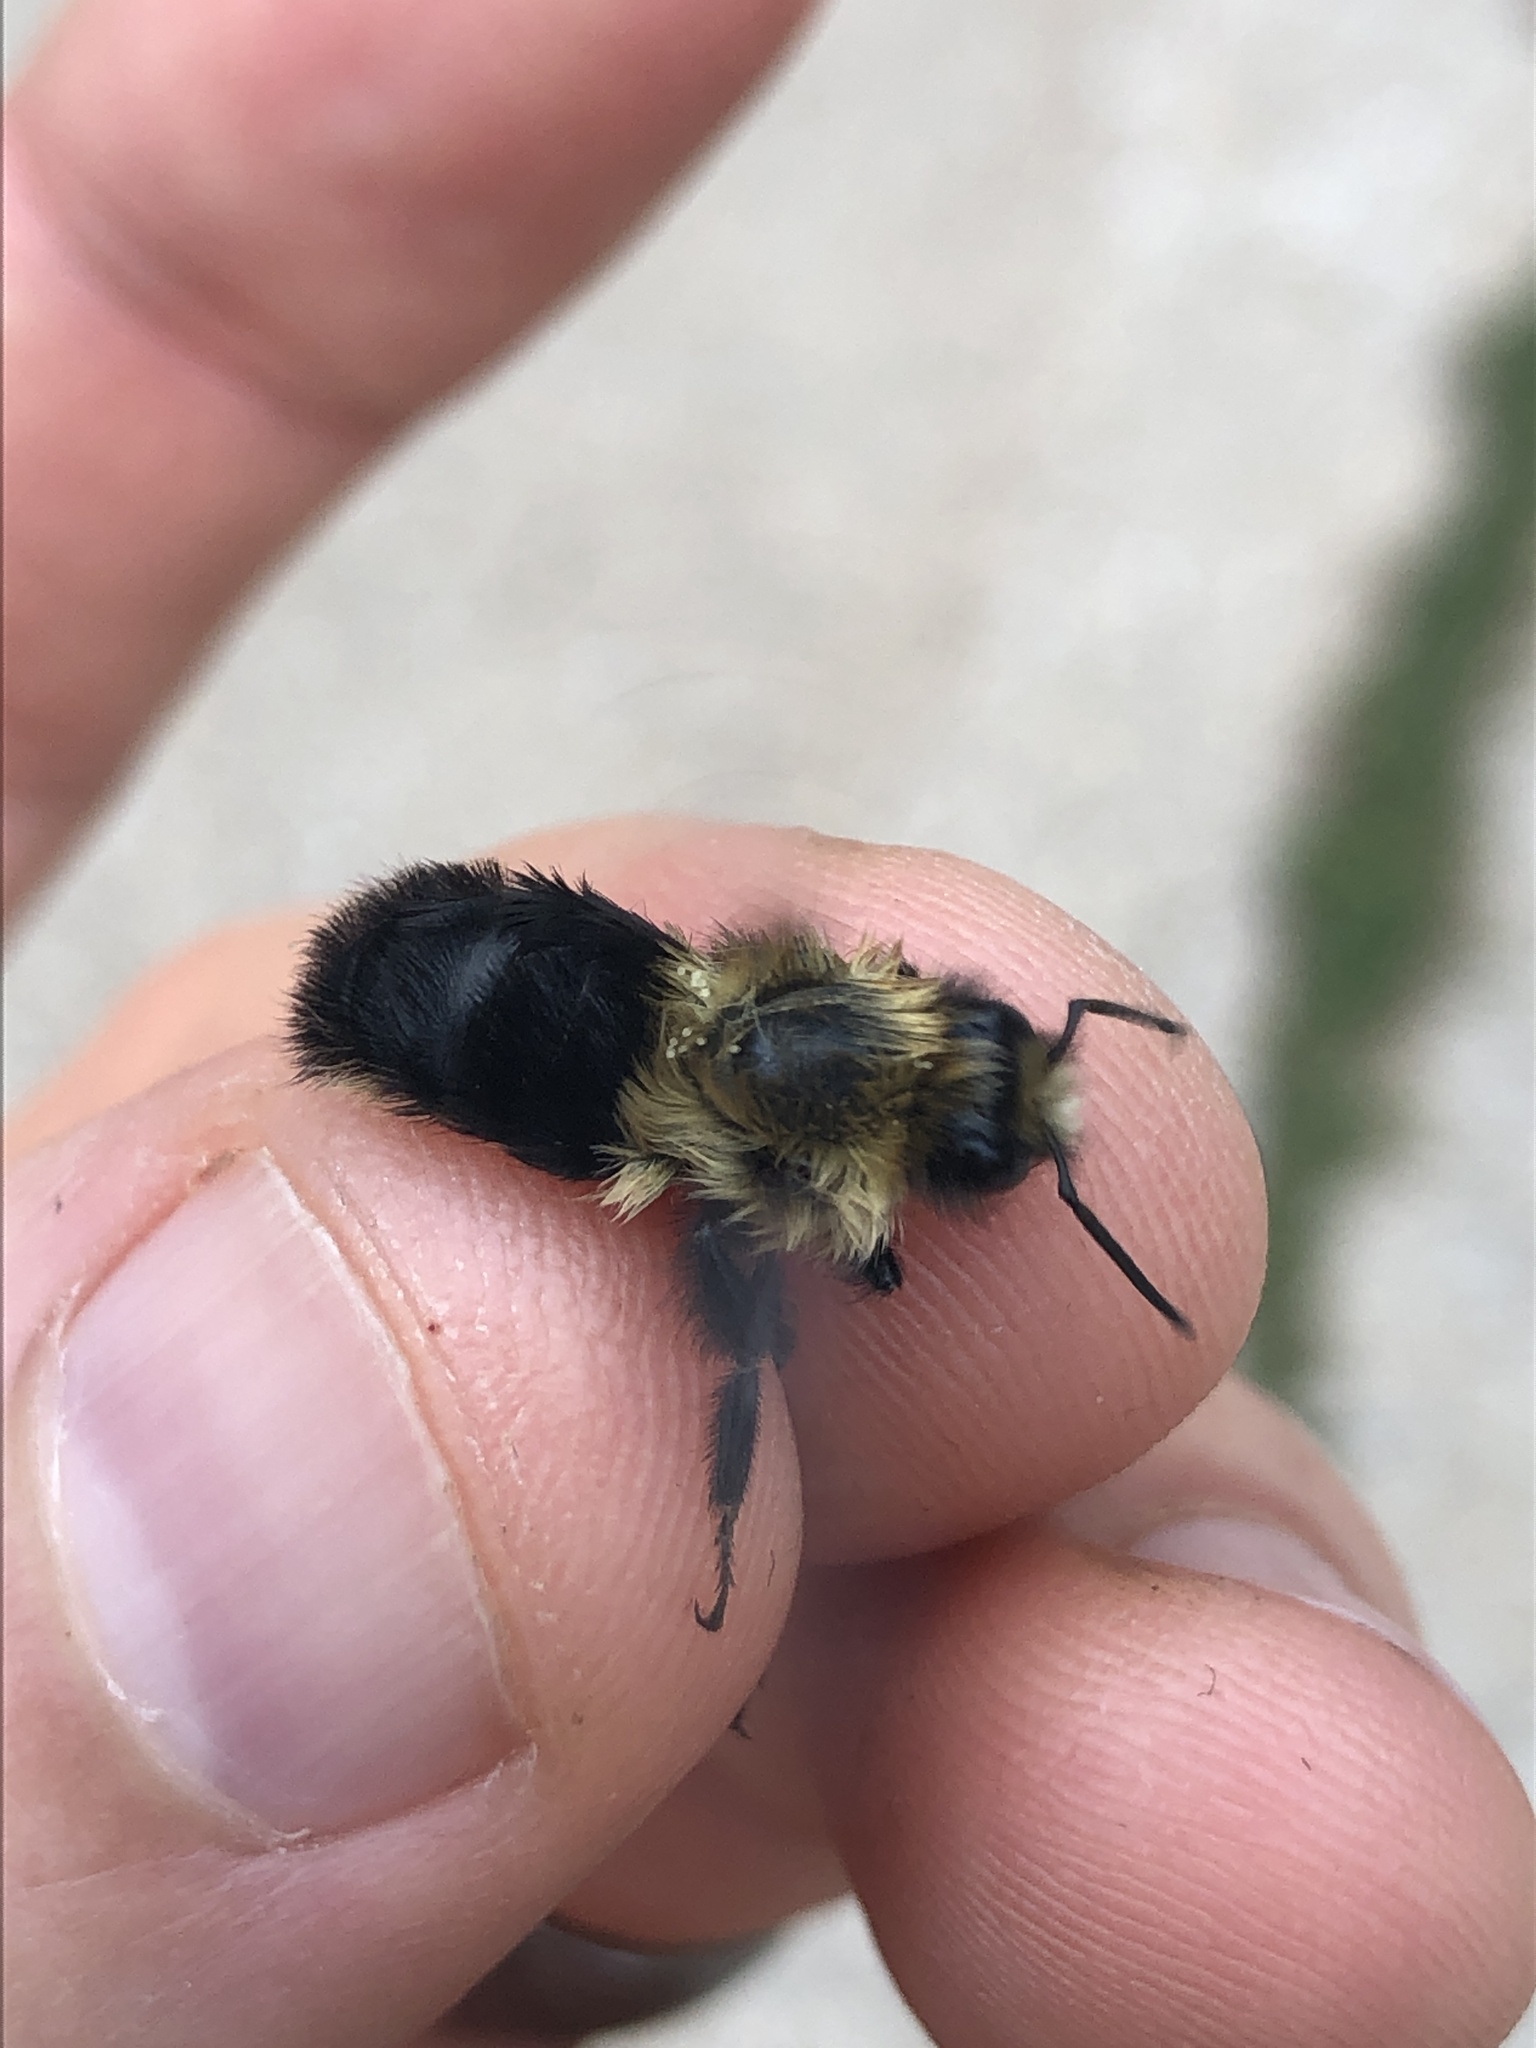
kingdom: Animalia
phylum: Arthropoda
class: Insecta
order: Hymenoptera
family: Apidae
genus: Bombus
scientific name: Bombus impatiens
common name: Common eastern bumble bee
